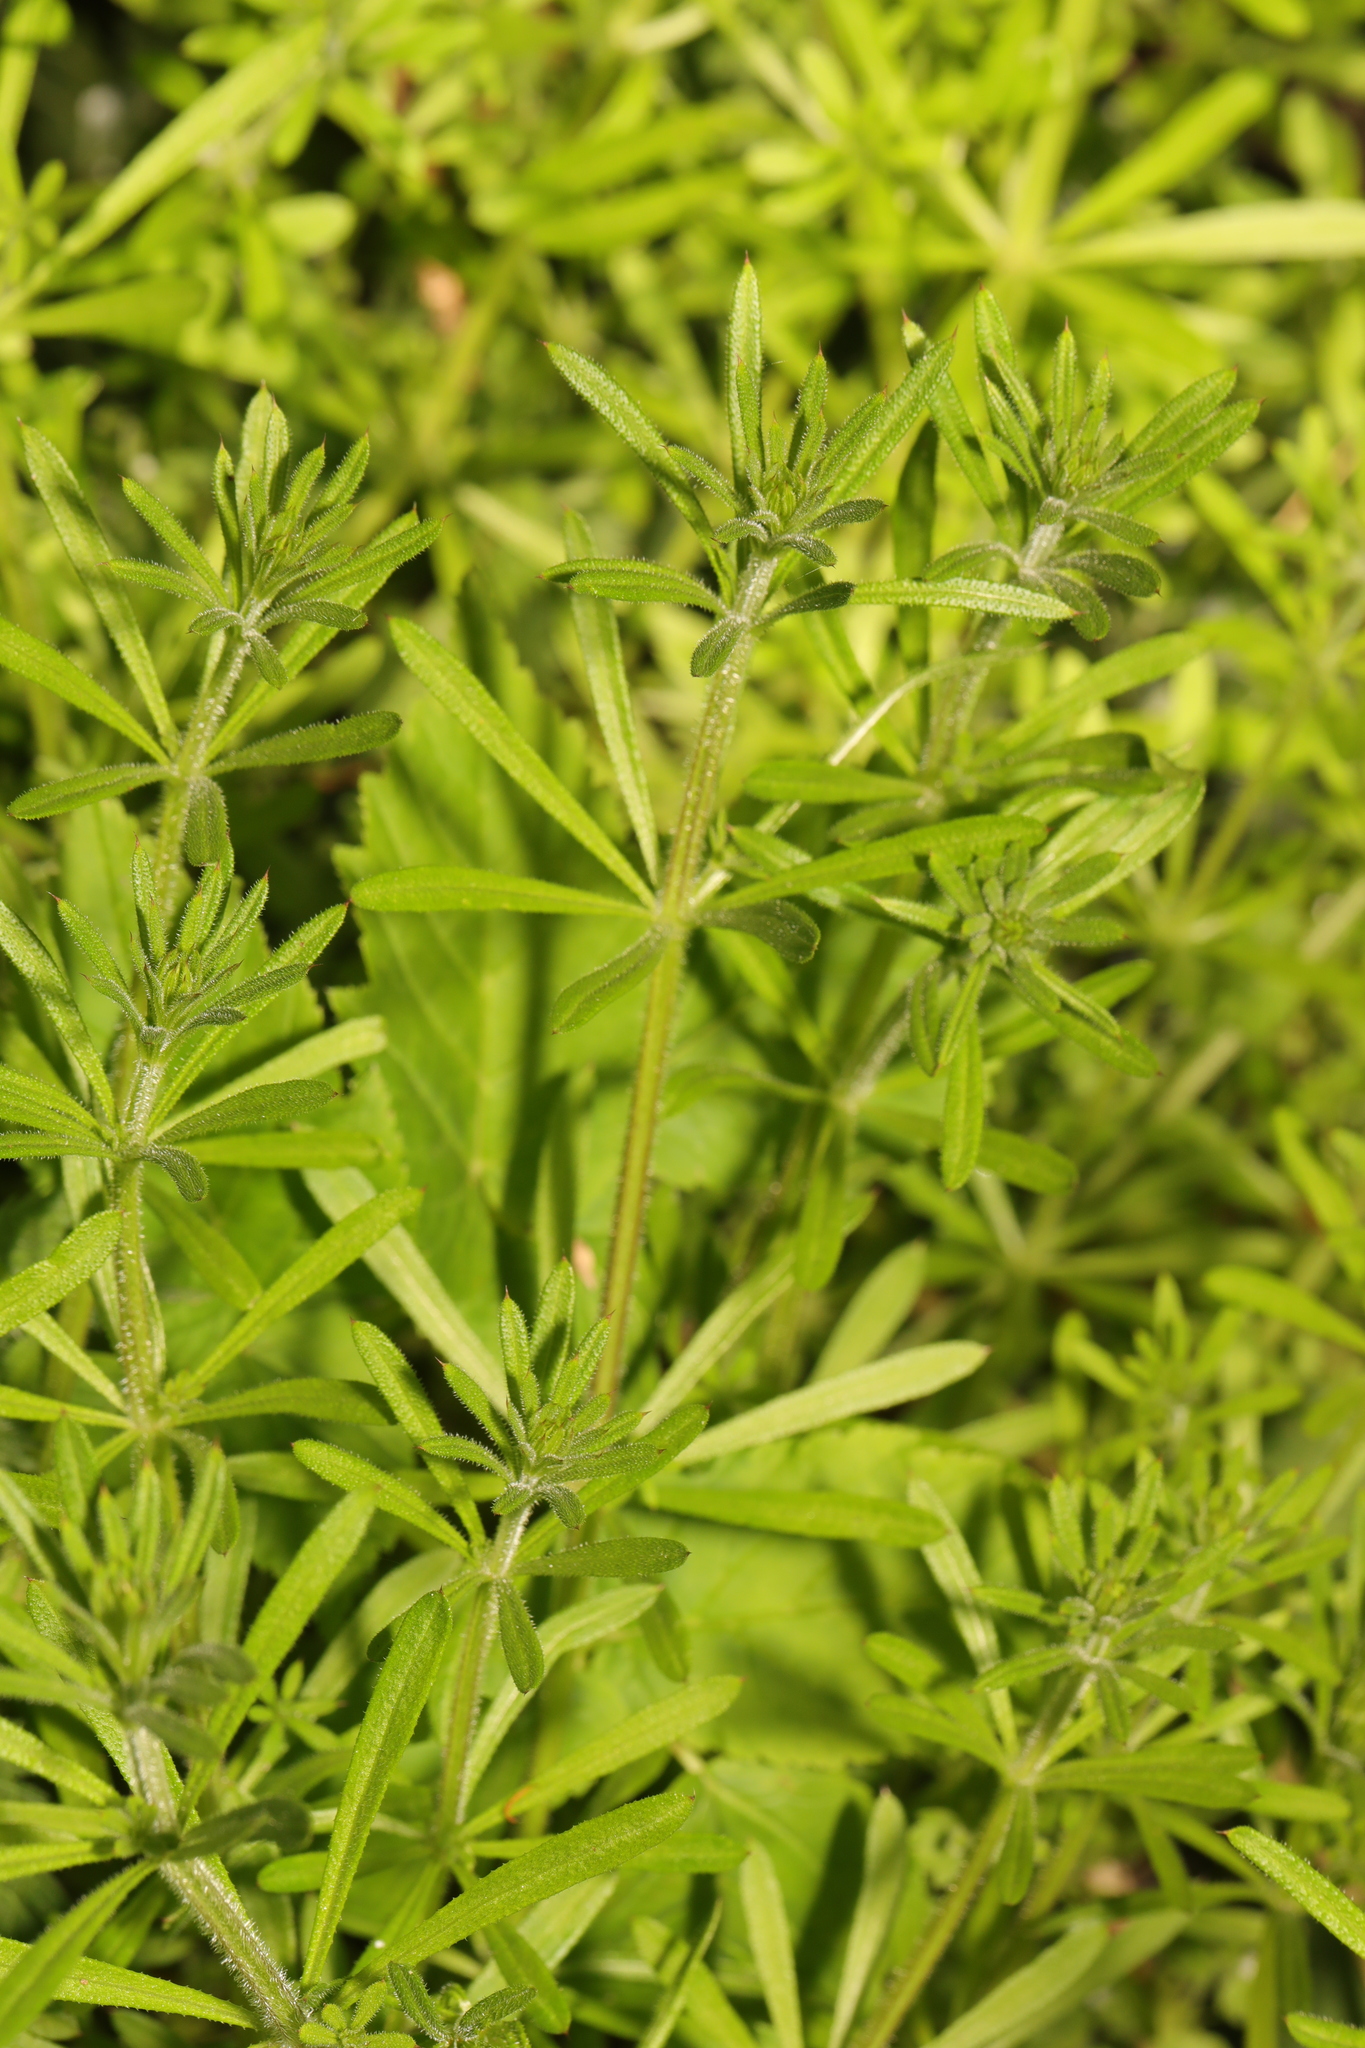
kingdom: Plantae
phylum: Tracheophyta
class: Magnoliopsida
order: Gentianales
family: Rubiaceae
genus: Galium
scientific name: Galium aparine
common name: Cleavers
